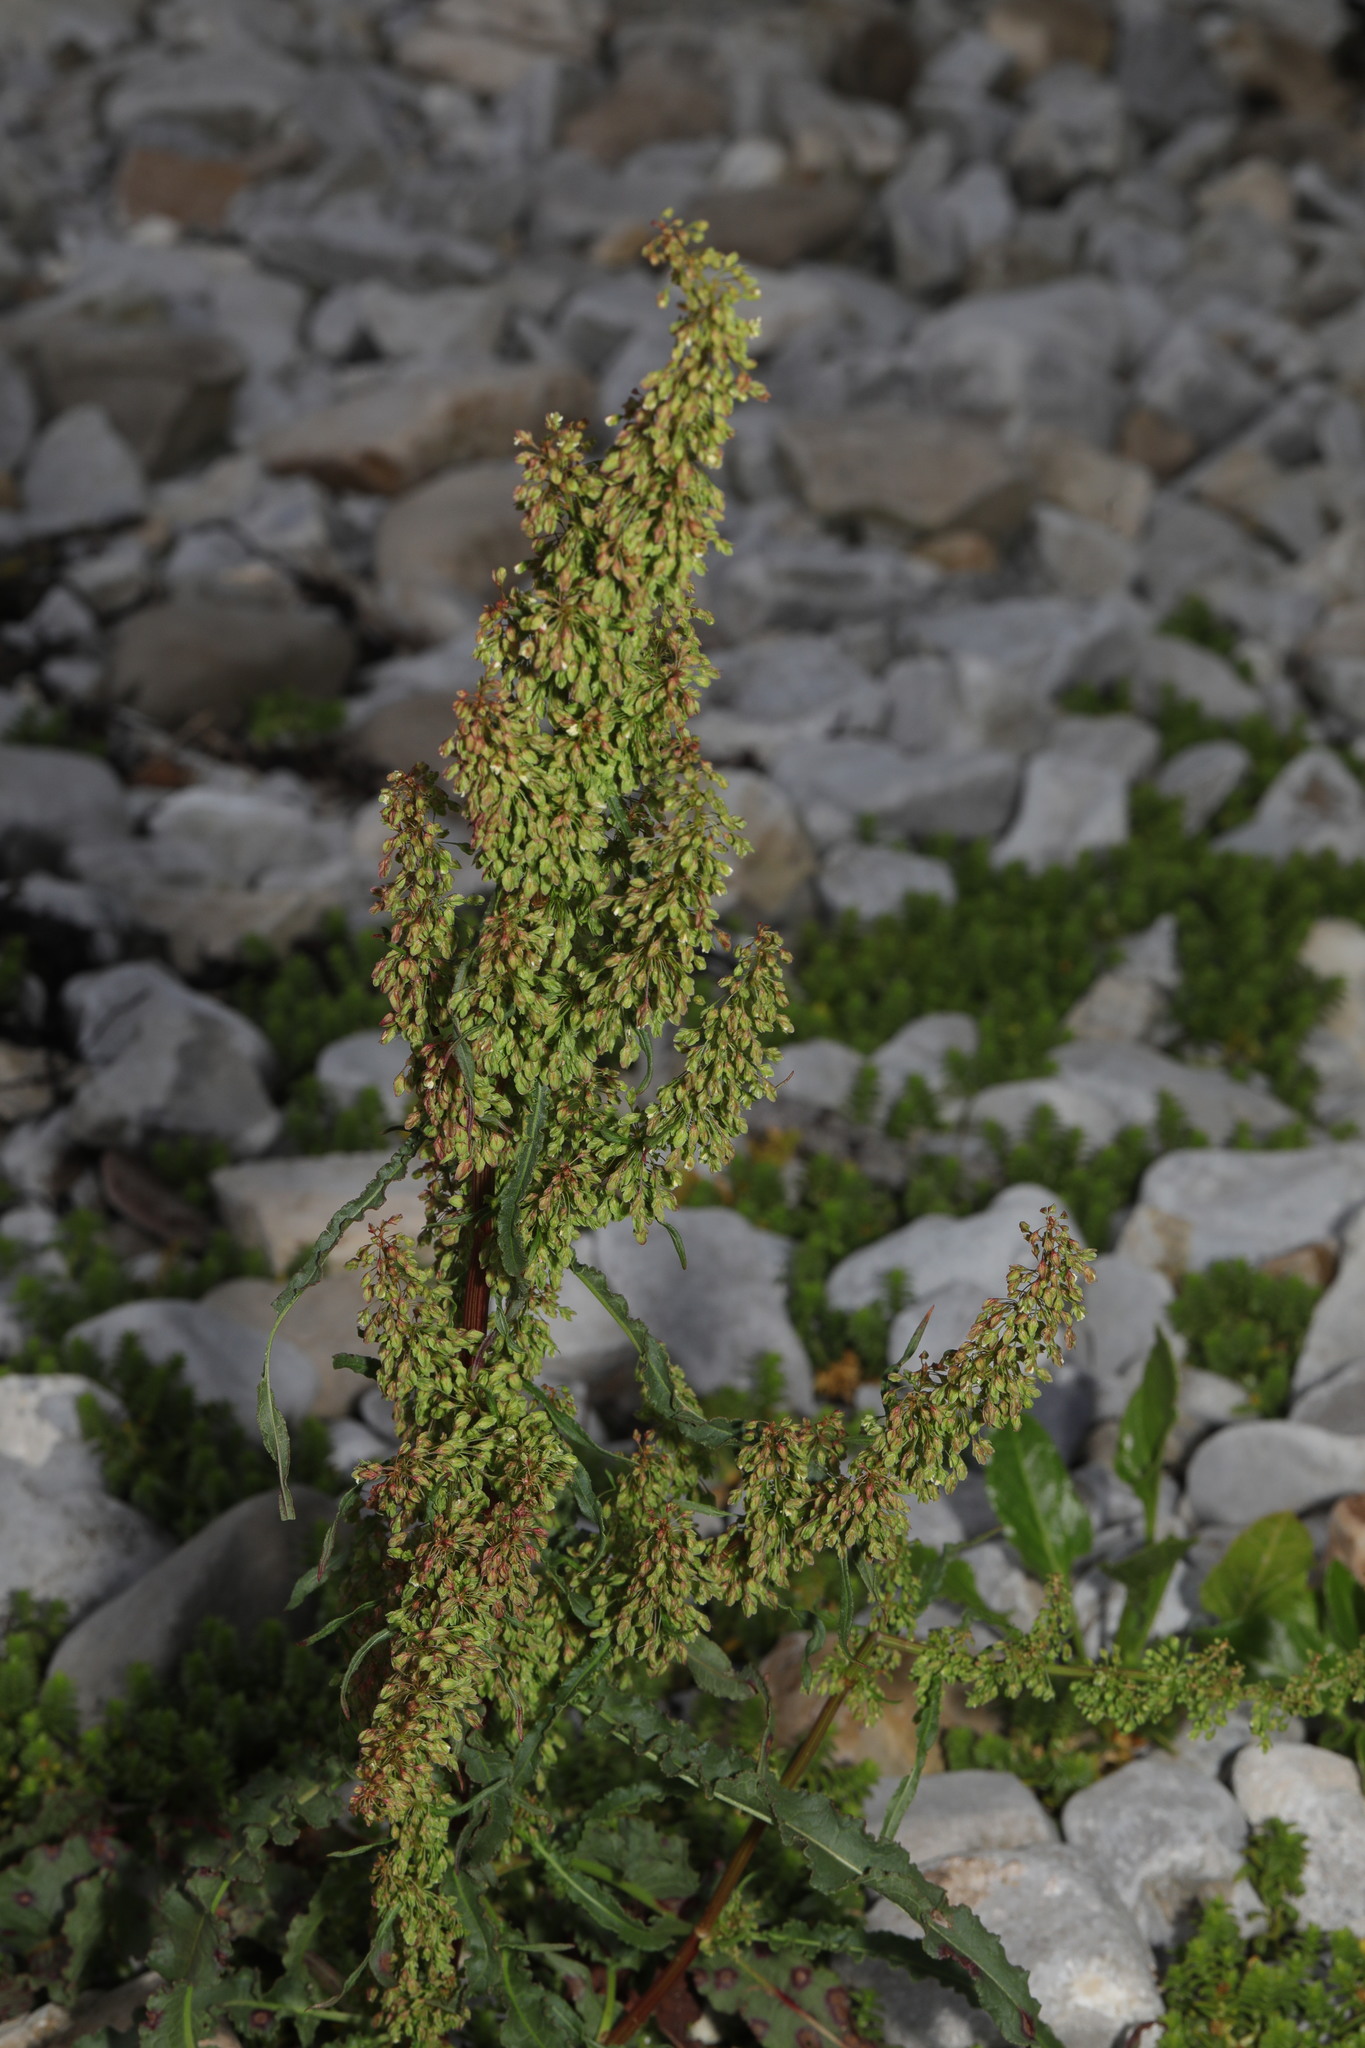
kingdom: Plantae
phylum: Tracheophyta
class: Magnoliopsida
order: Caryophyllales
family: Polygonaceae
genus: Rumex
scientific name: Rumex crispus
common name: Curled dock
